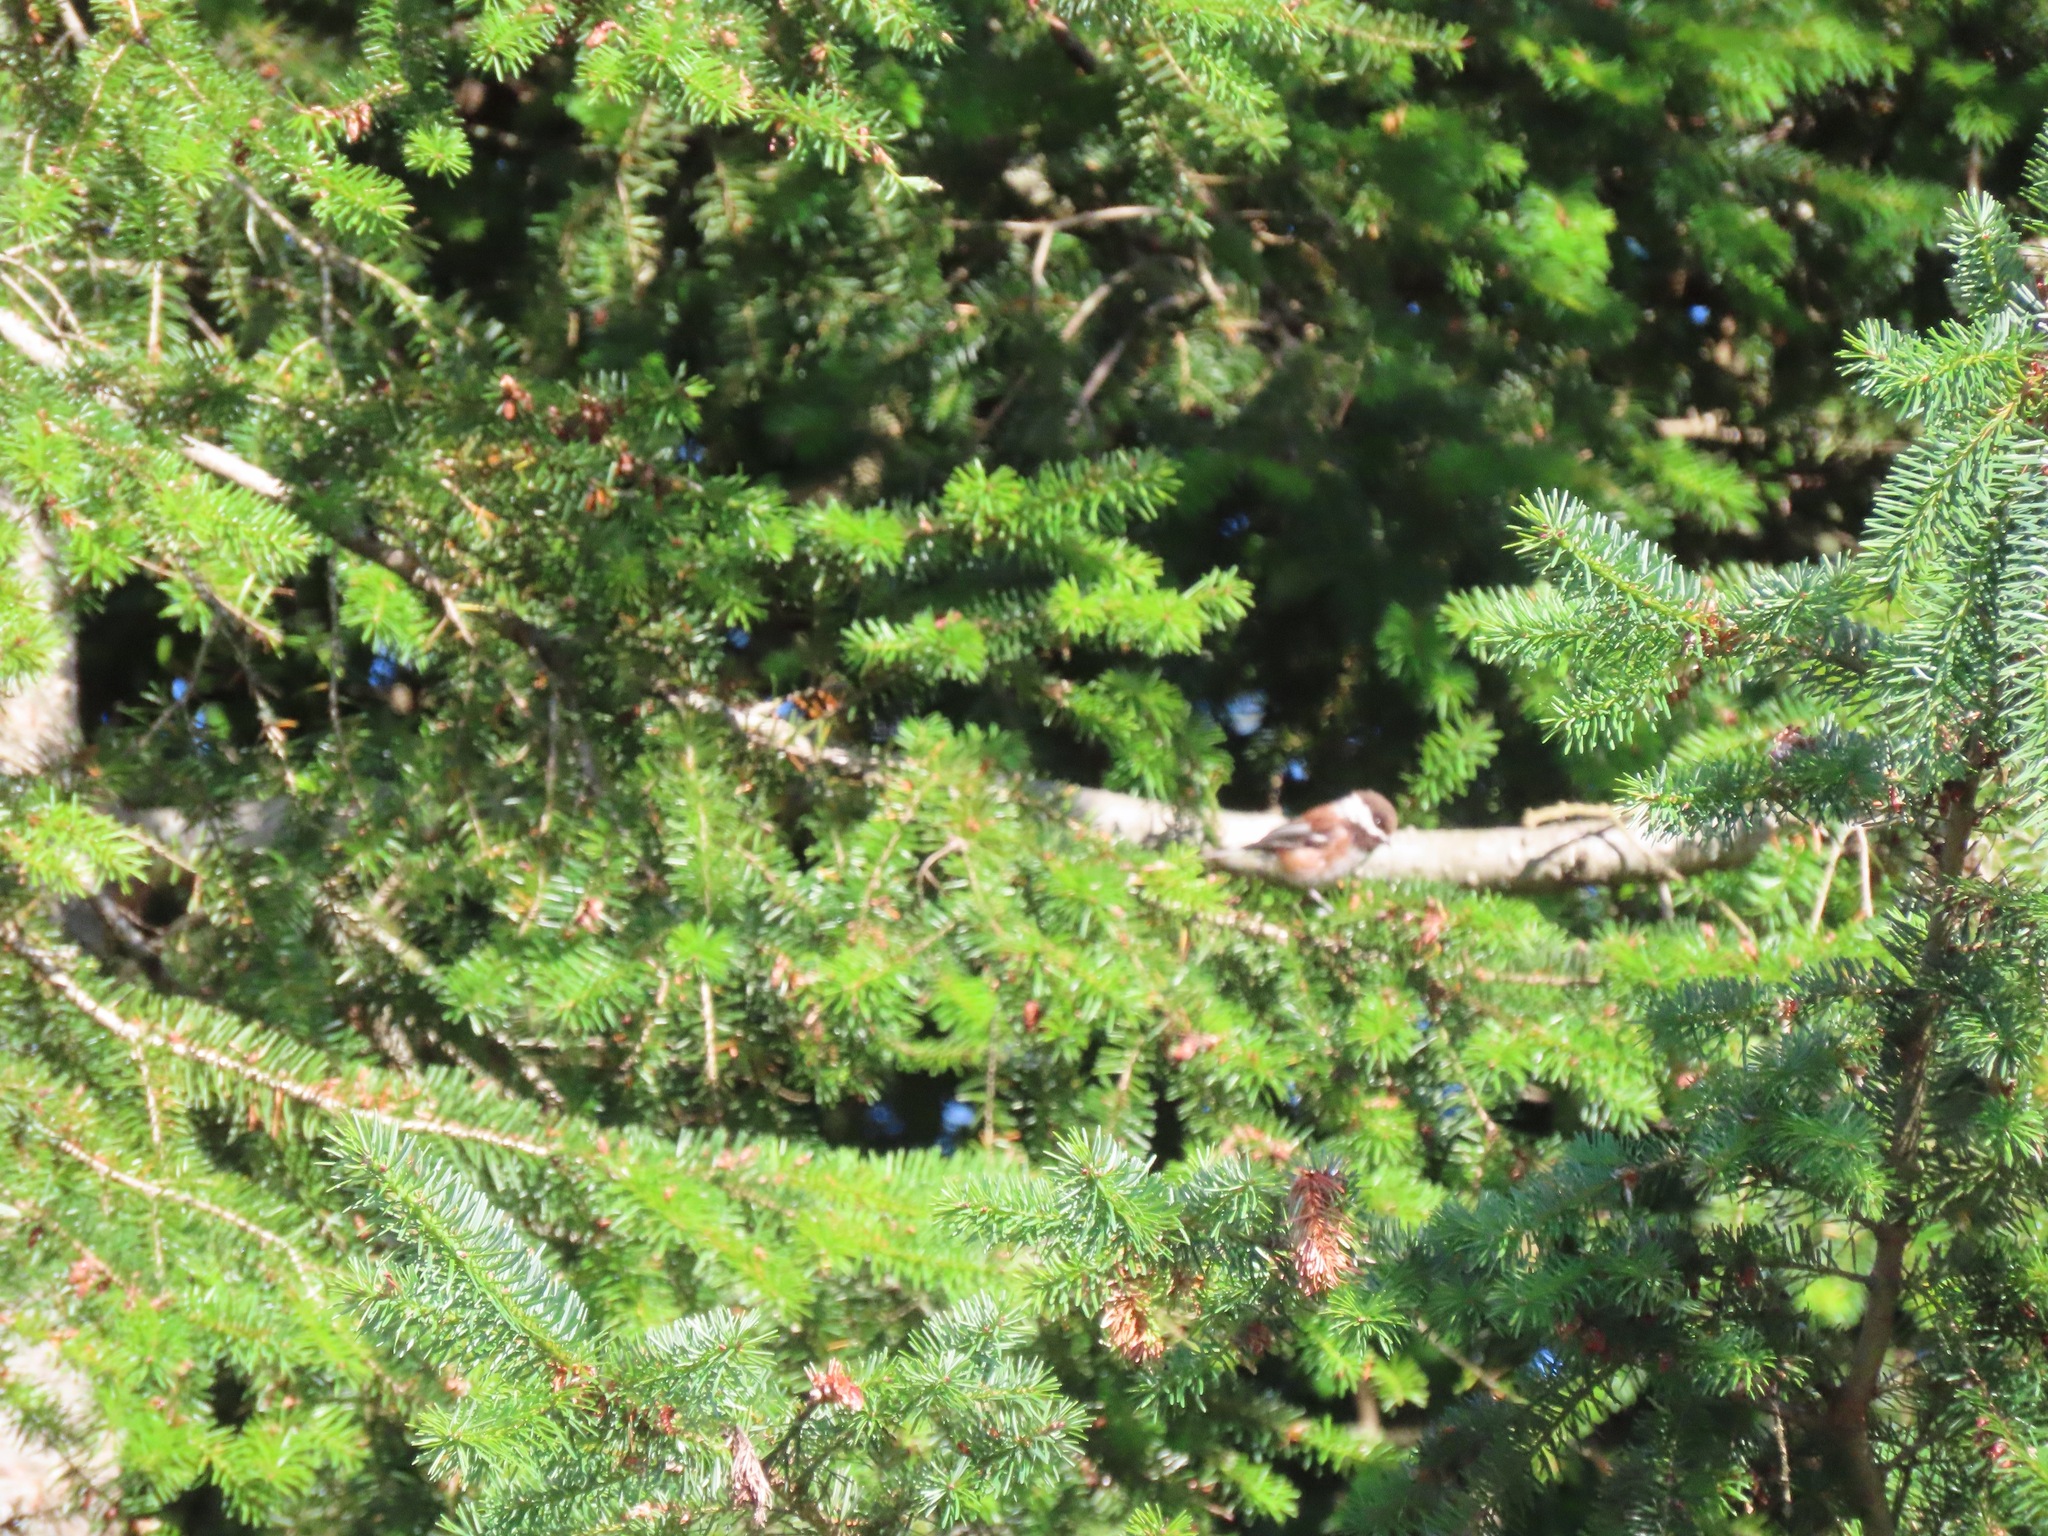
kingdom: Animalia
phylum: Chordata
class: Aves
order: Passeriformes
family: Paridae
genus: Poecile
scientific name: Poecile rufescens
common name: Chestnut-backed chickadee
